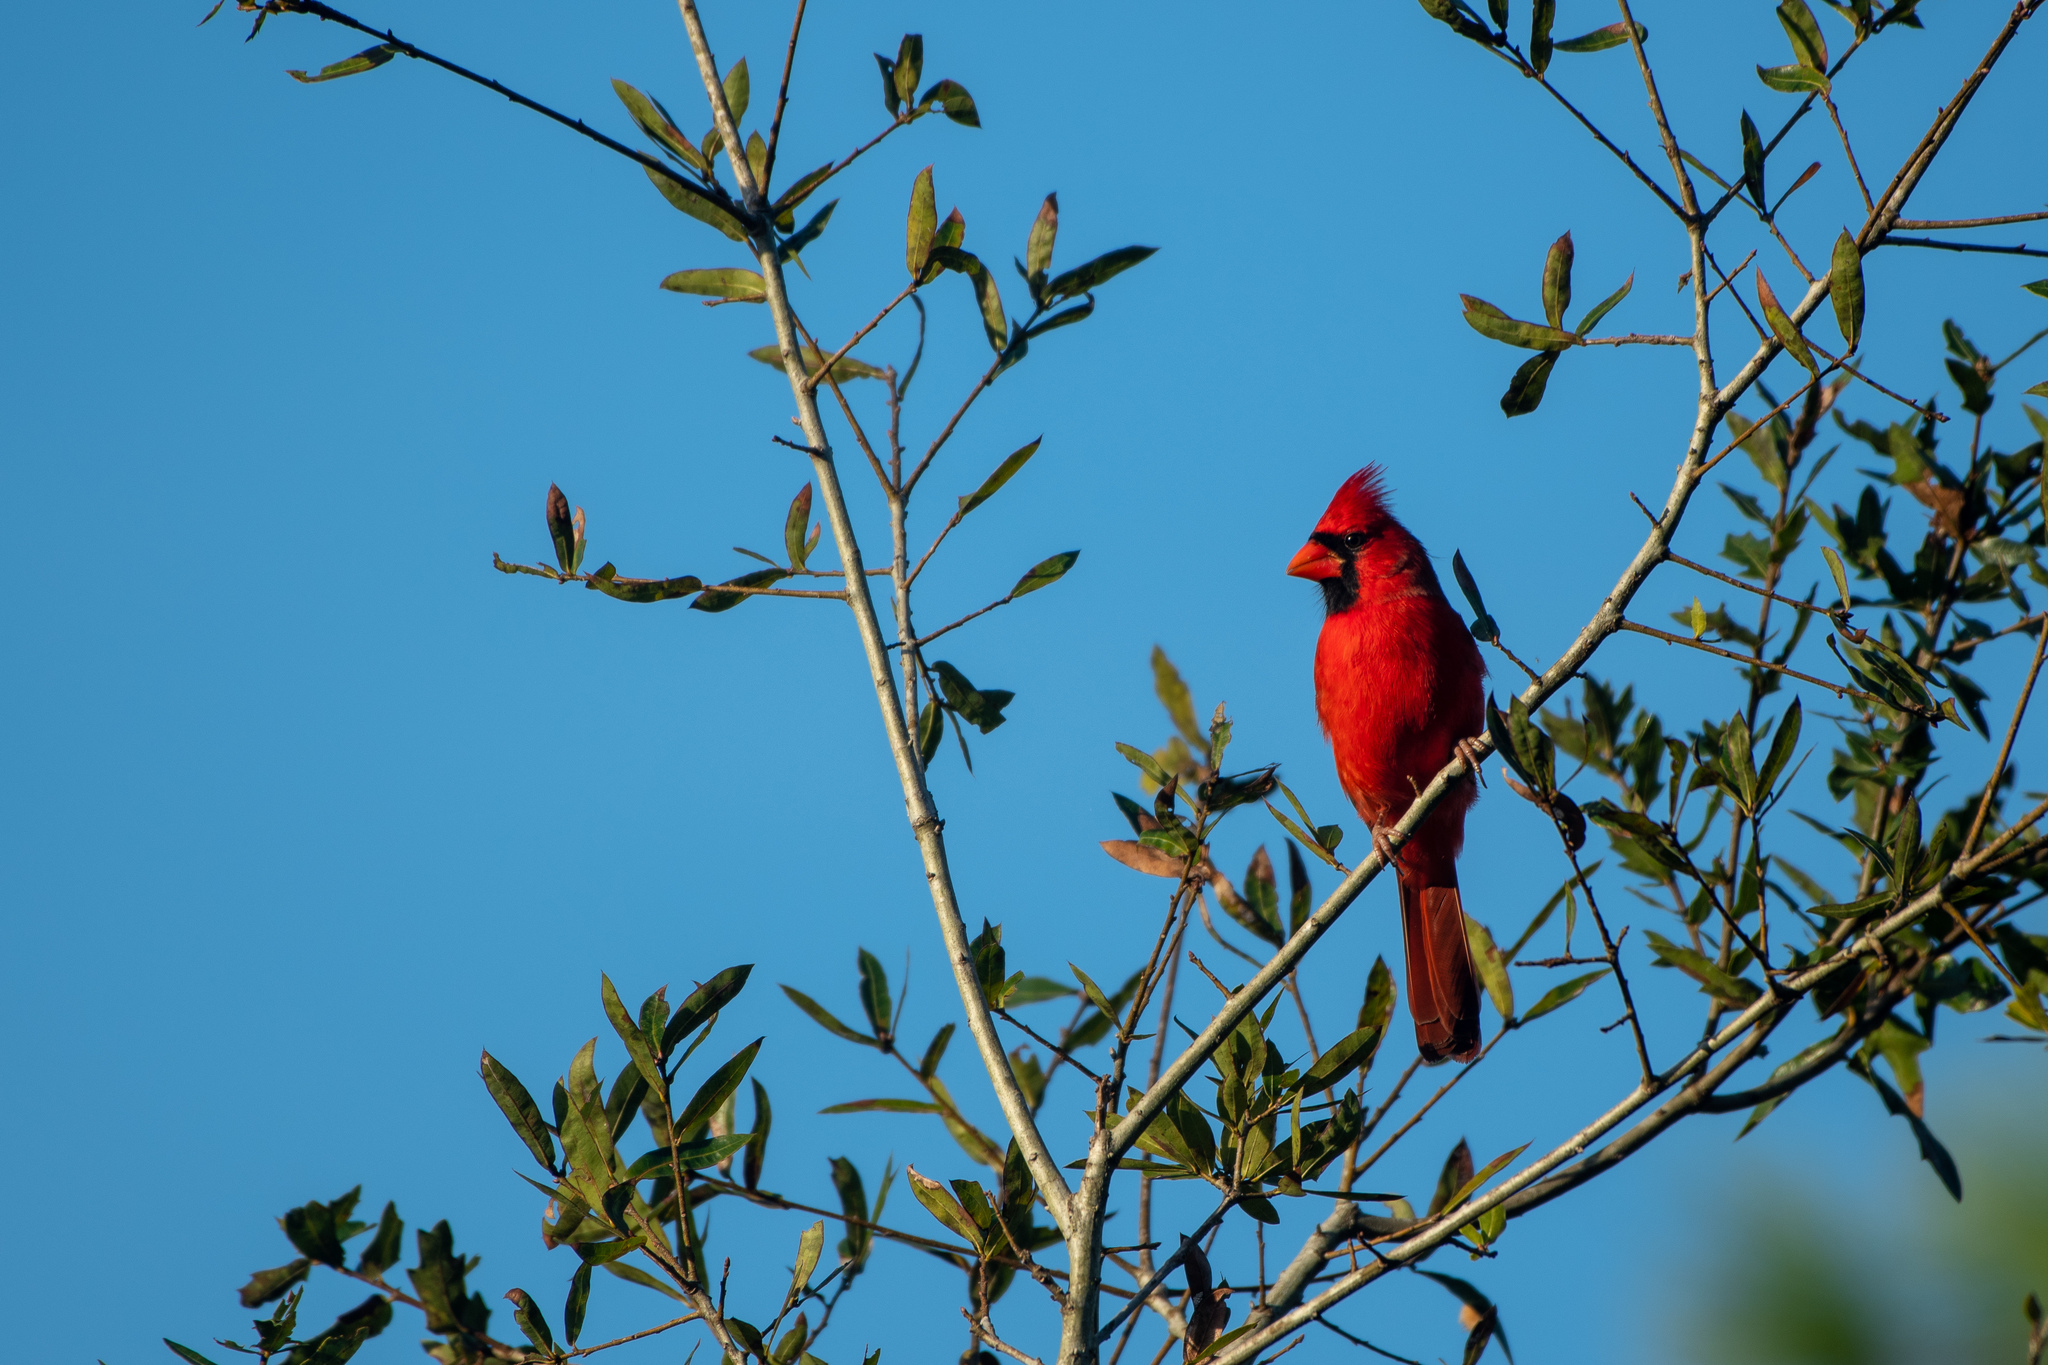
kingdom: Animalia
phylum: Chordata
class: Aves
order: Passeriformes
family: Cardinalidae
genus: Cardinalis
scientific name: Cardinalis cardinalis
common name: Northern cardinal
